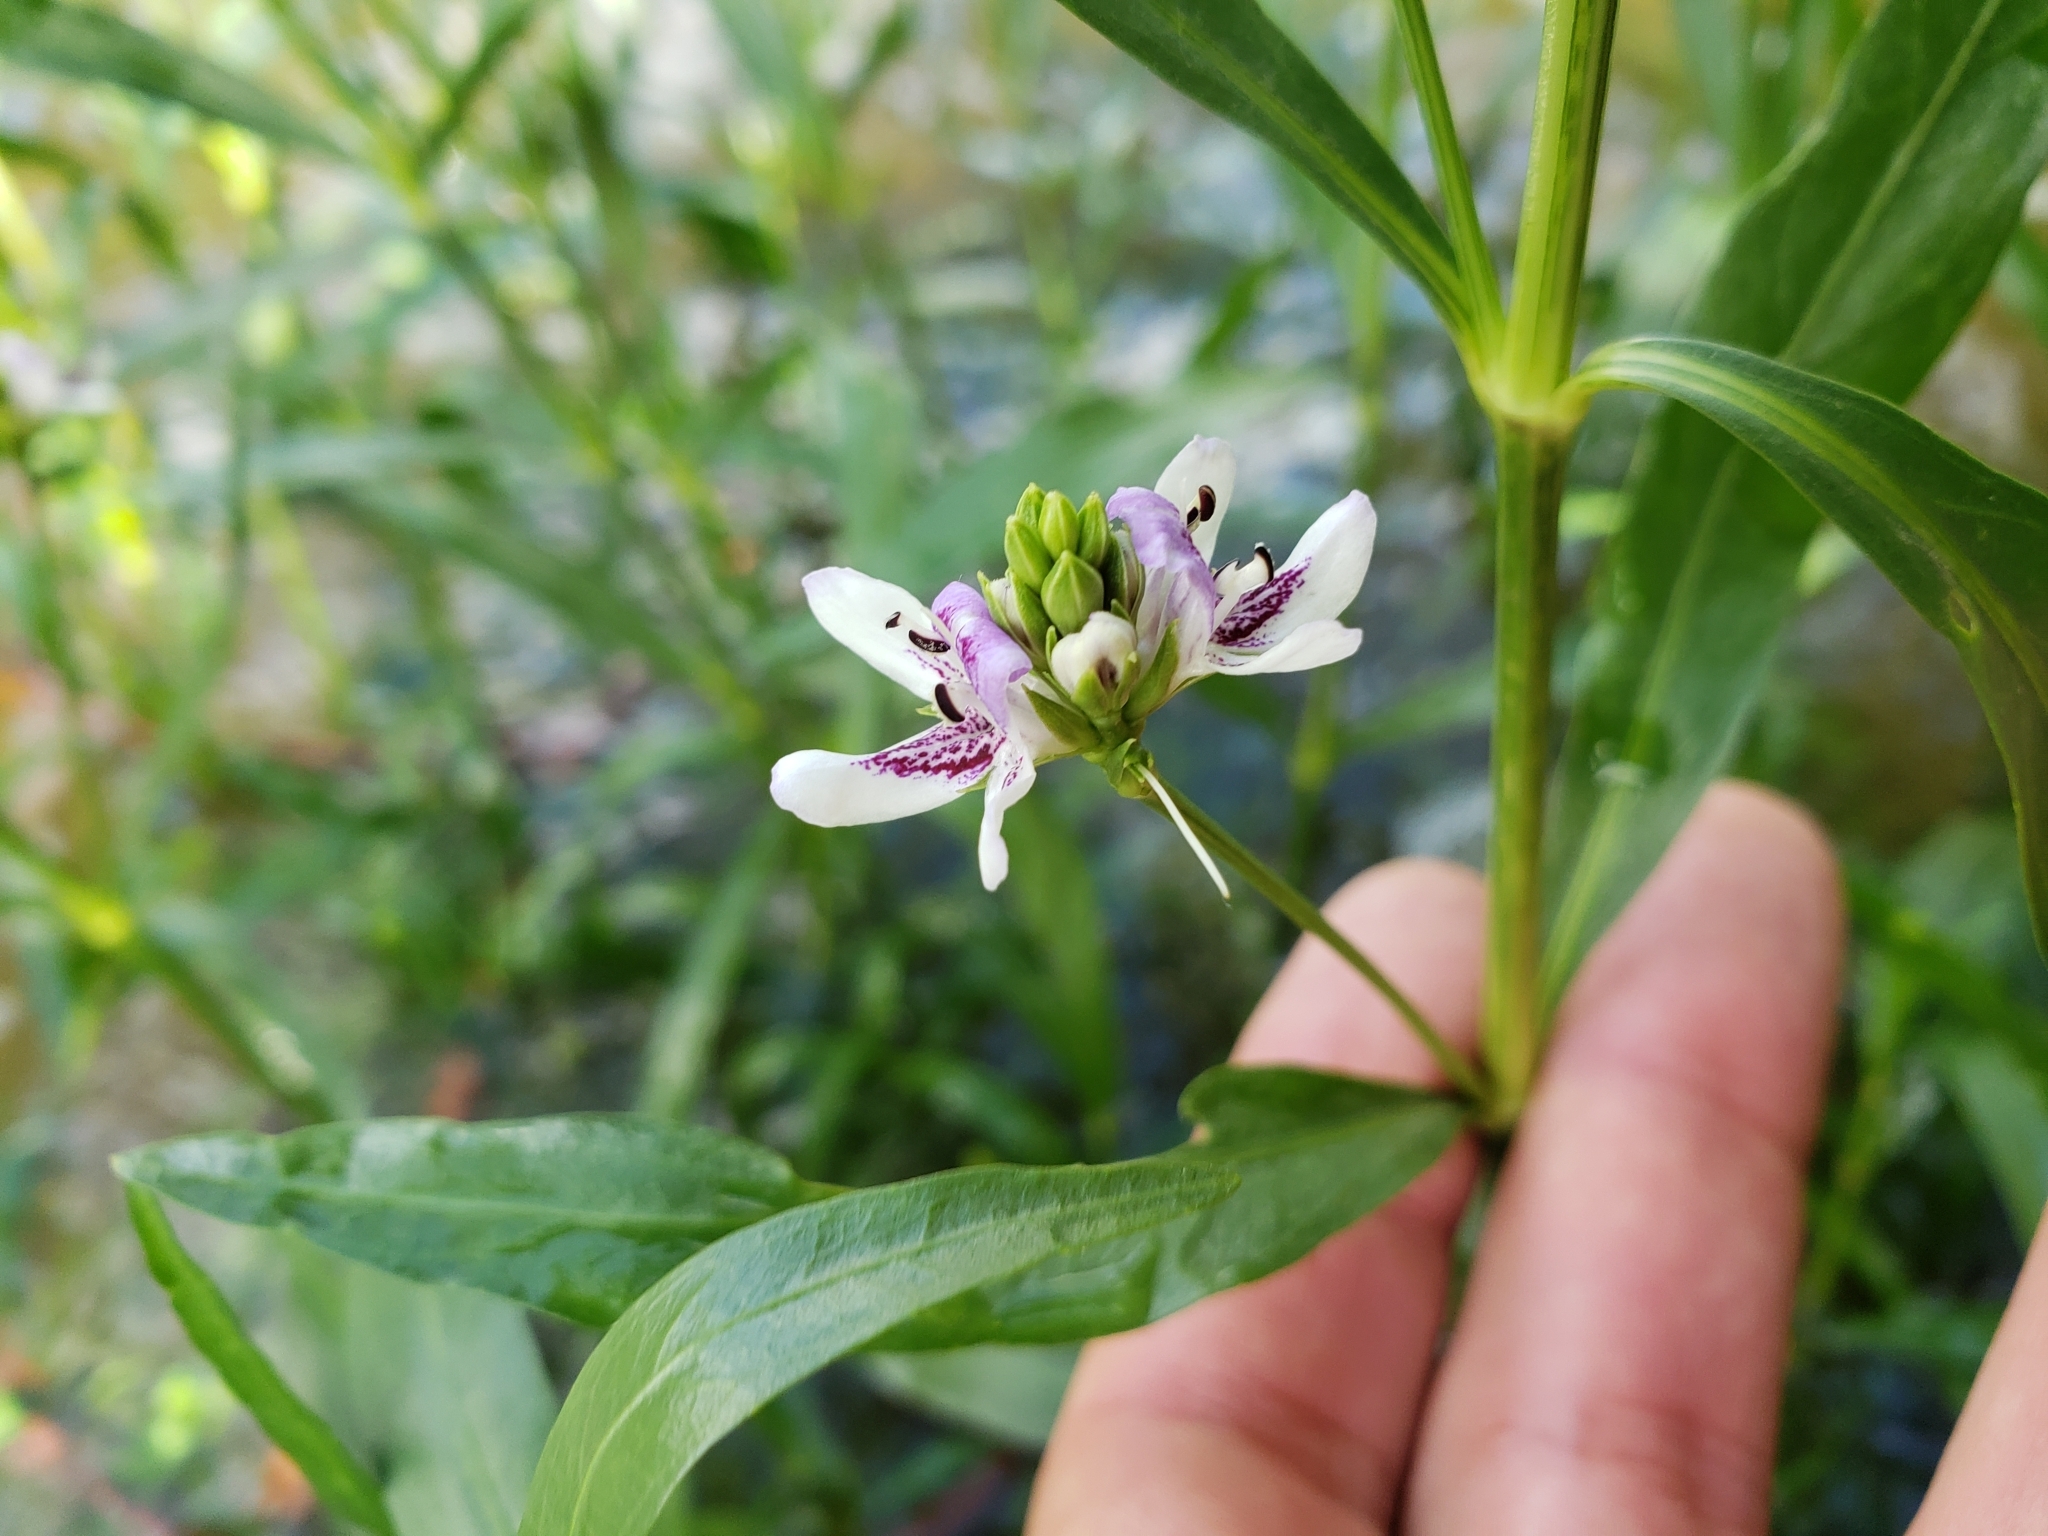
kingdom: Plantae
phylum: Tracheophyta
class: Magnoliopsida
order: Lamiales
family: Acanthaceae
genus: Dianthera
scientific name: Dianthera americana
